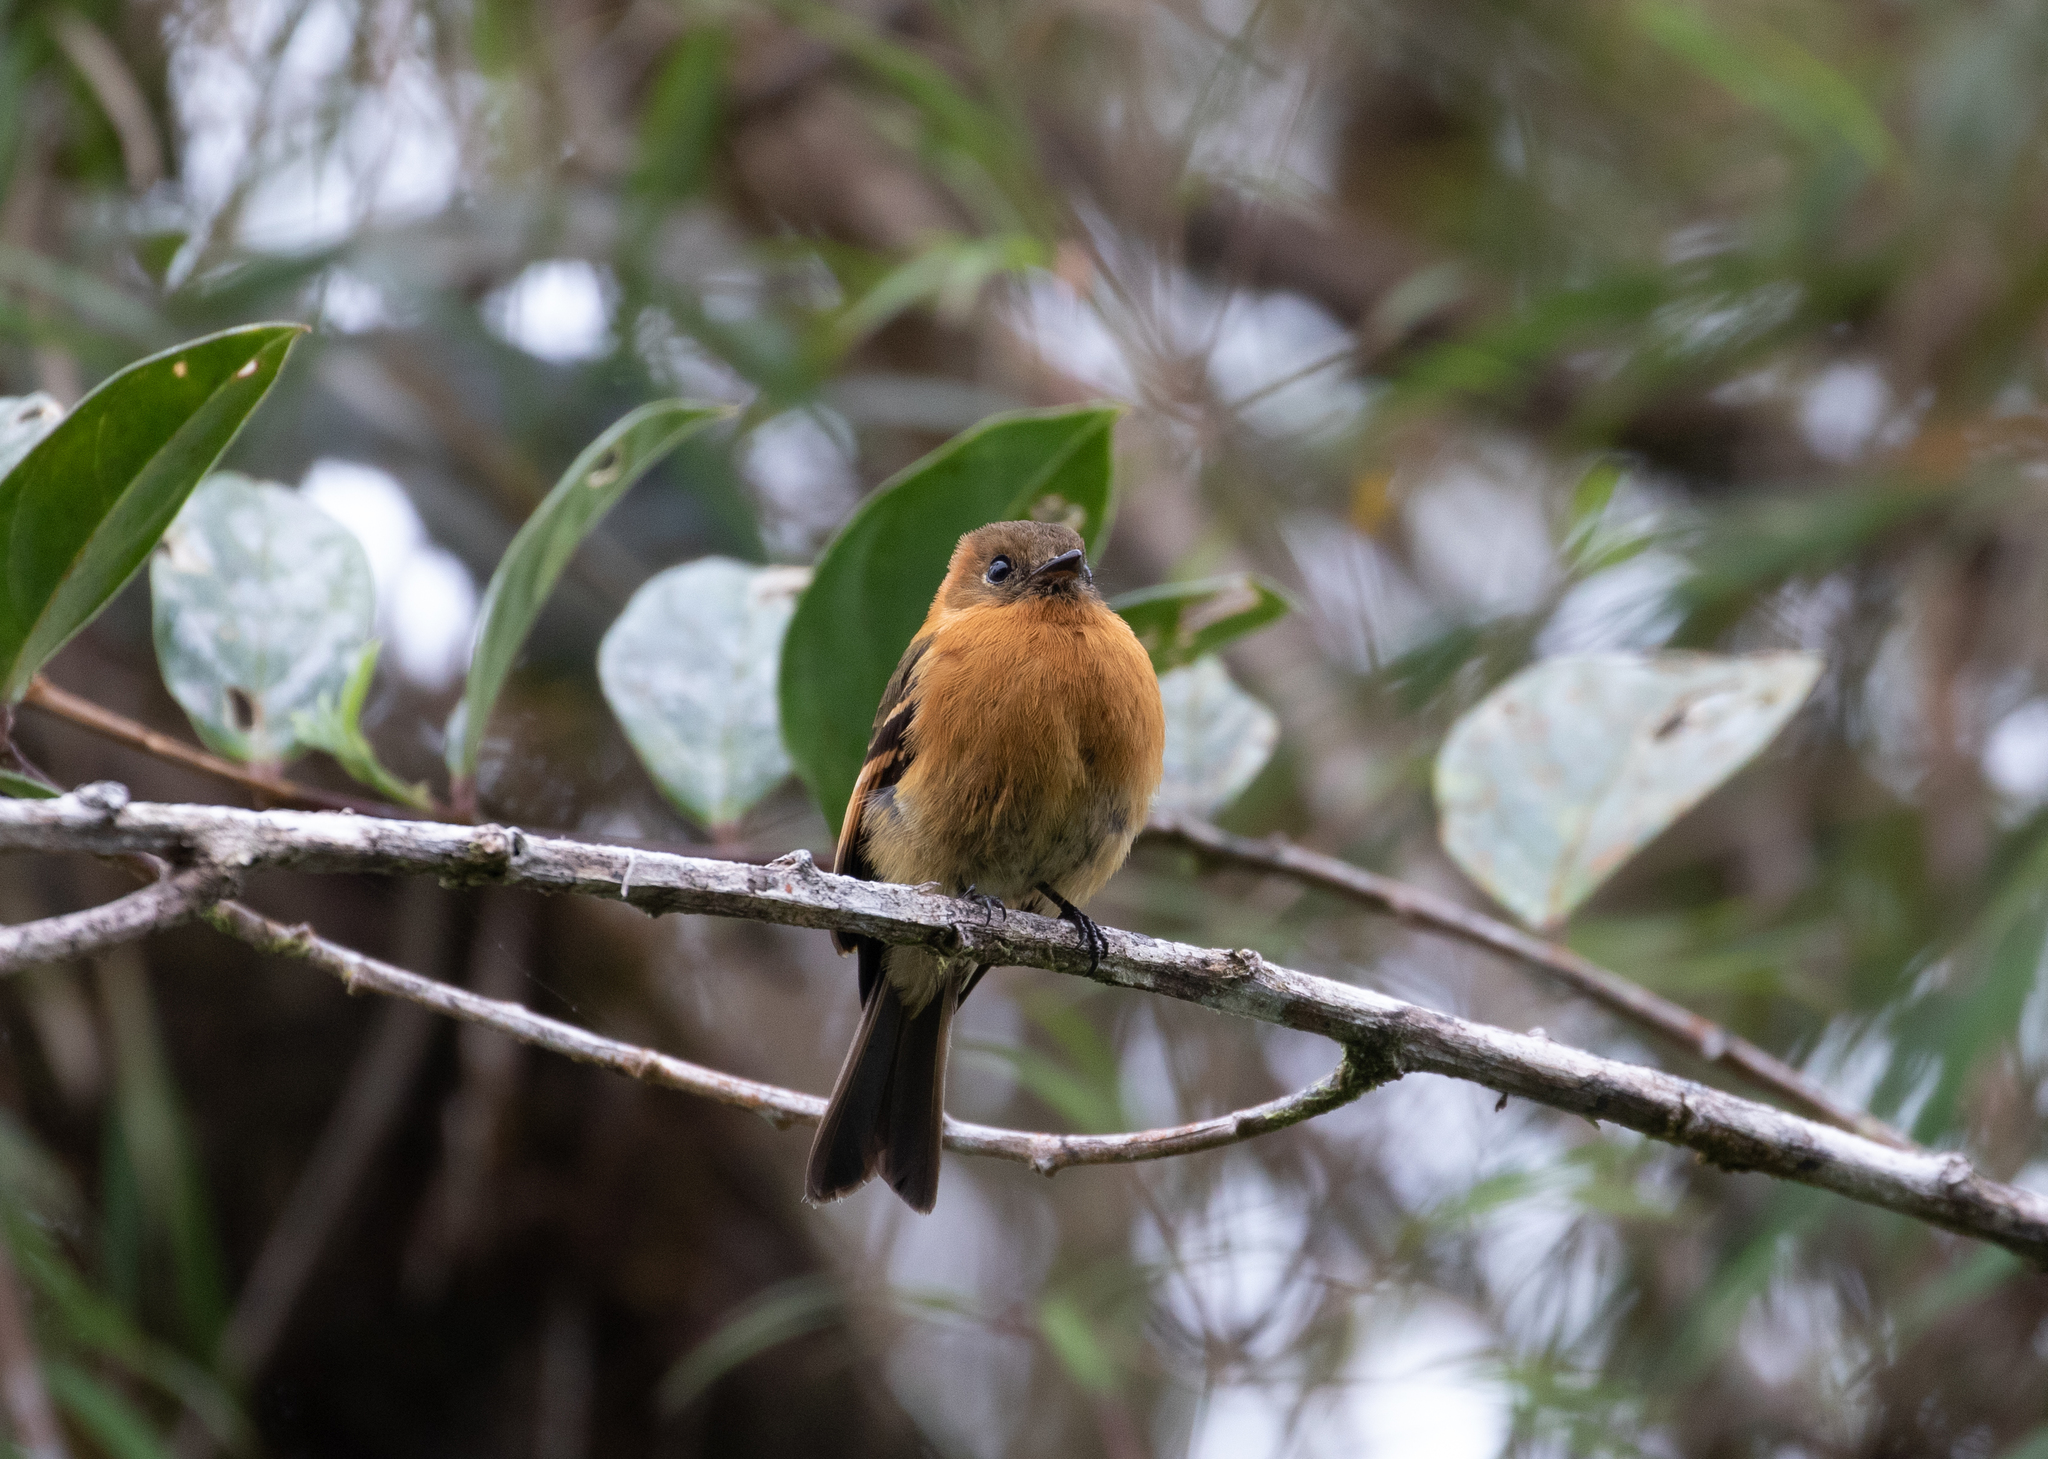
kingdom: Animalia
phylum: Chordata
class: Aves
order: Passeriformes
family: Tyrannidae
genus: Pyrrhomyias
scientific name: Pyrrhomyias cinnamomeus
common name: Cinnamon flycatcher
